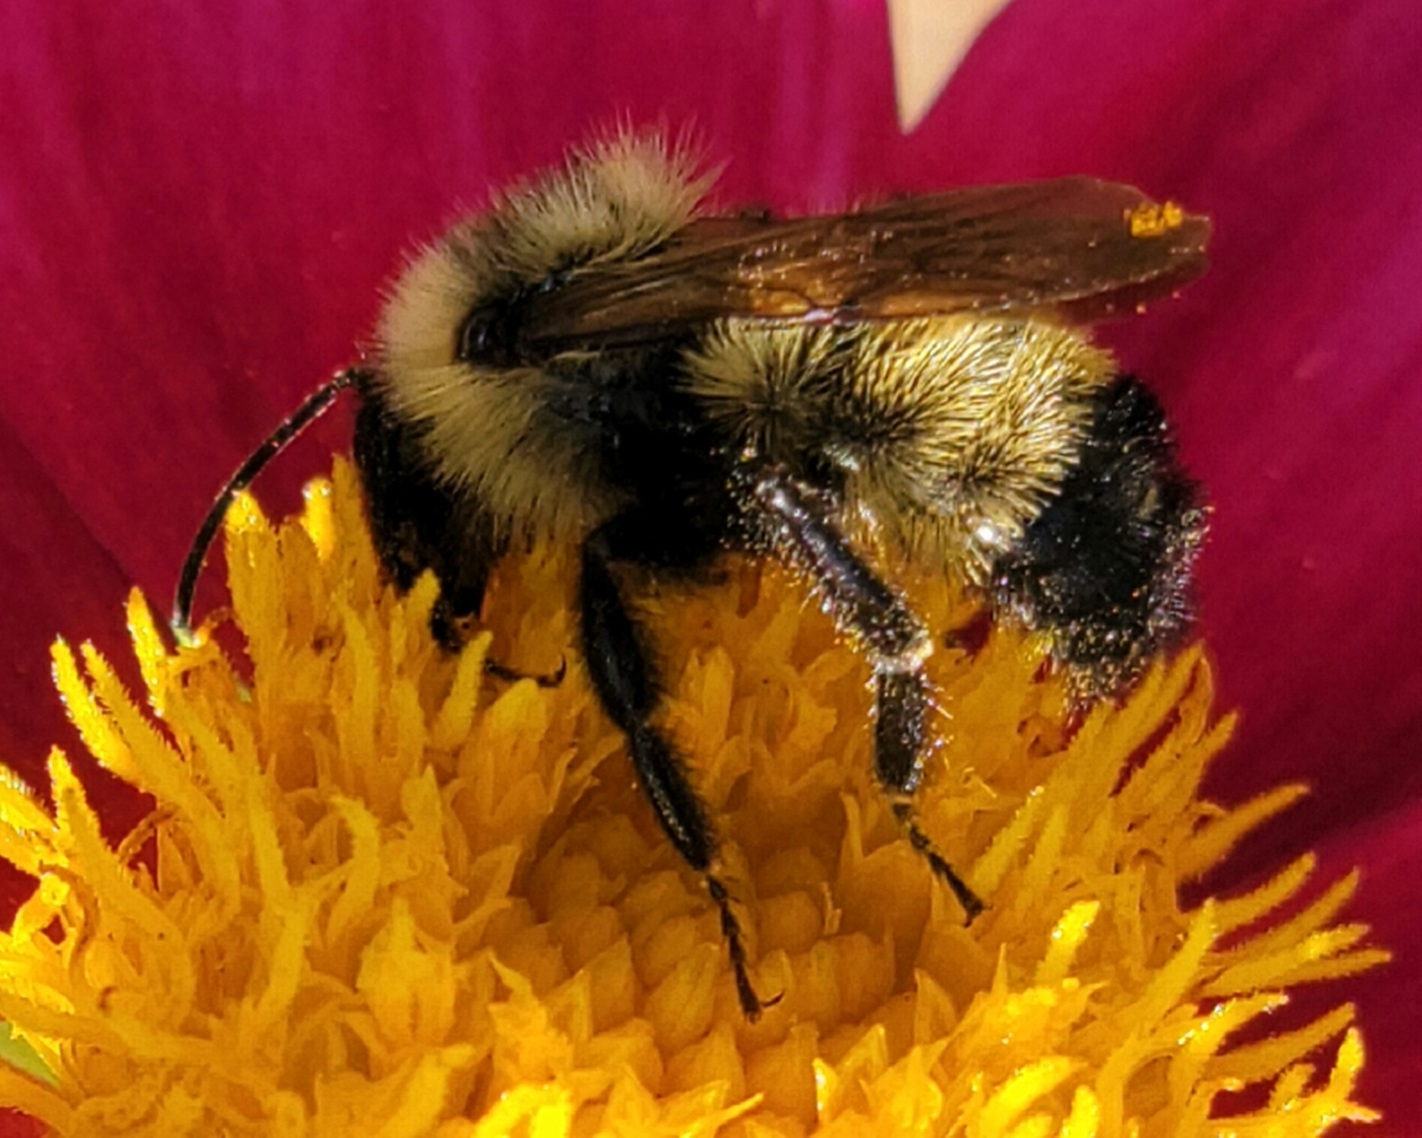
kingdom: Animalia
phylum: Arthropoda
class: Insecta
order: Hymenoptera
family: Apidae
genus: Bombus
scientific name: Bombus citrinus
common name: Lemon cuckoo bumble bee
